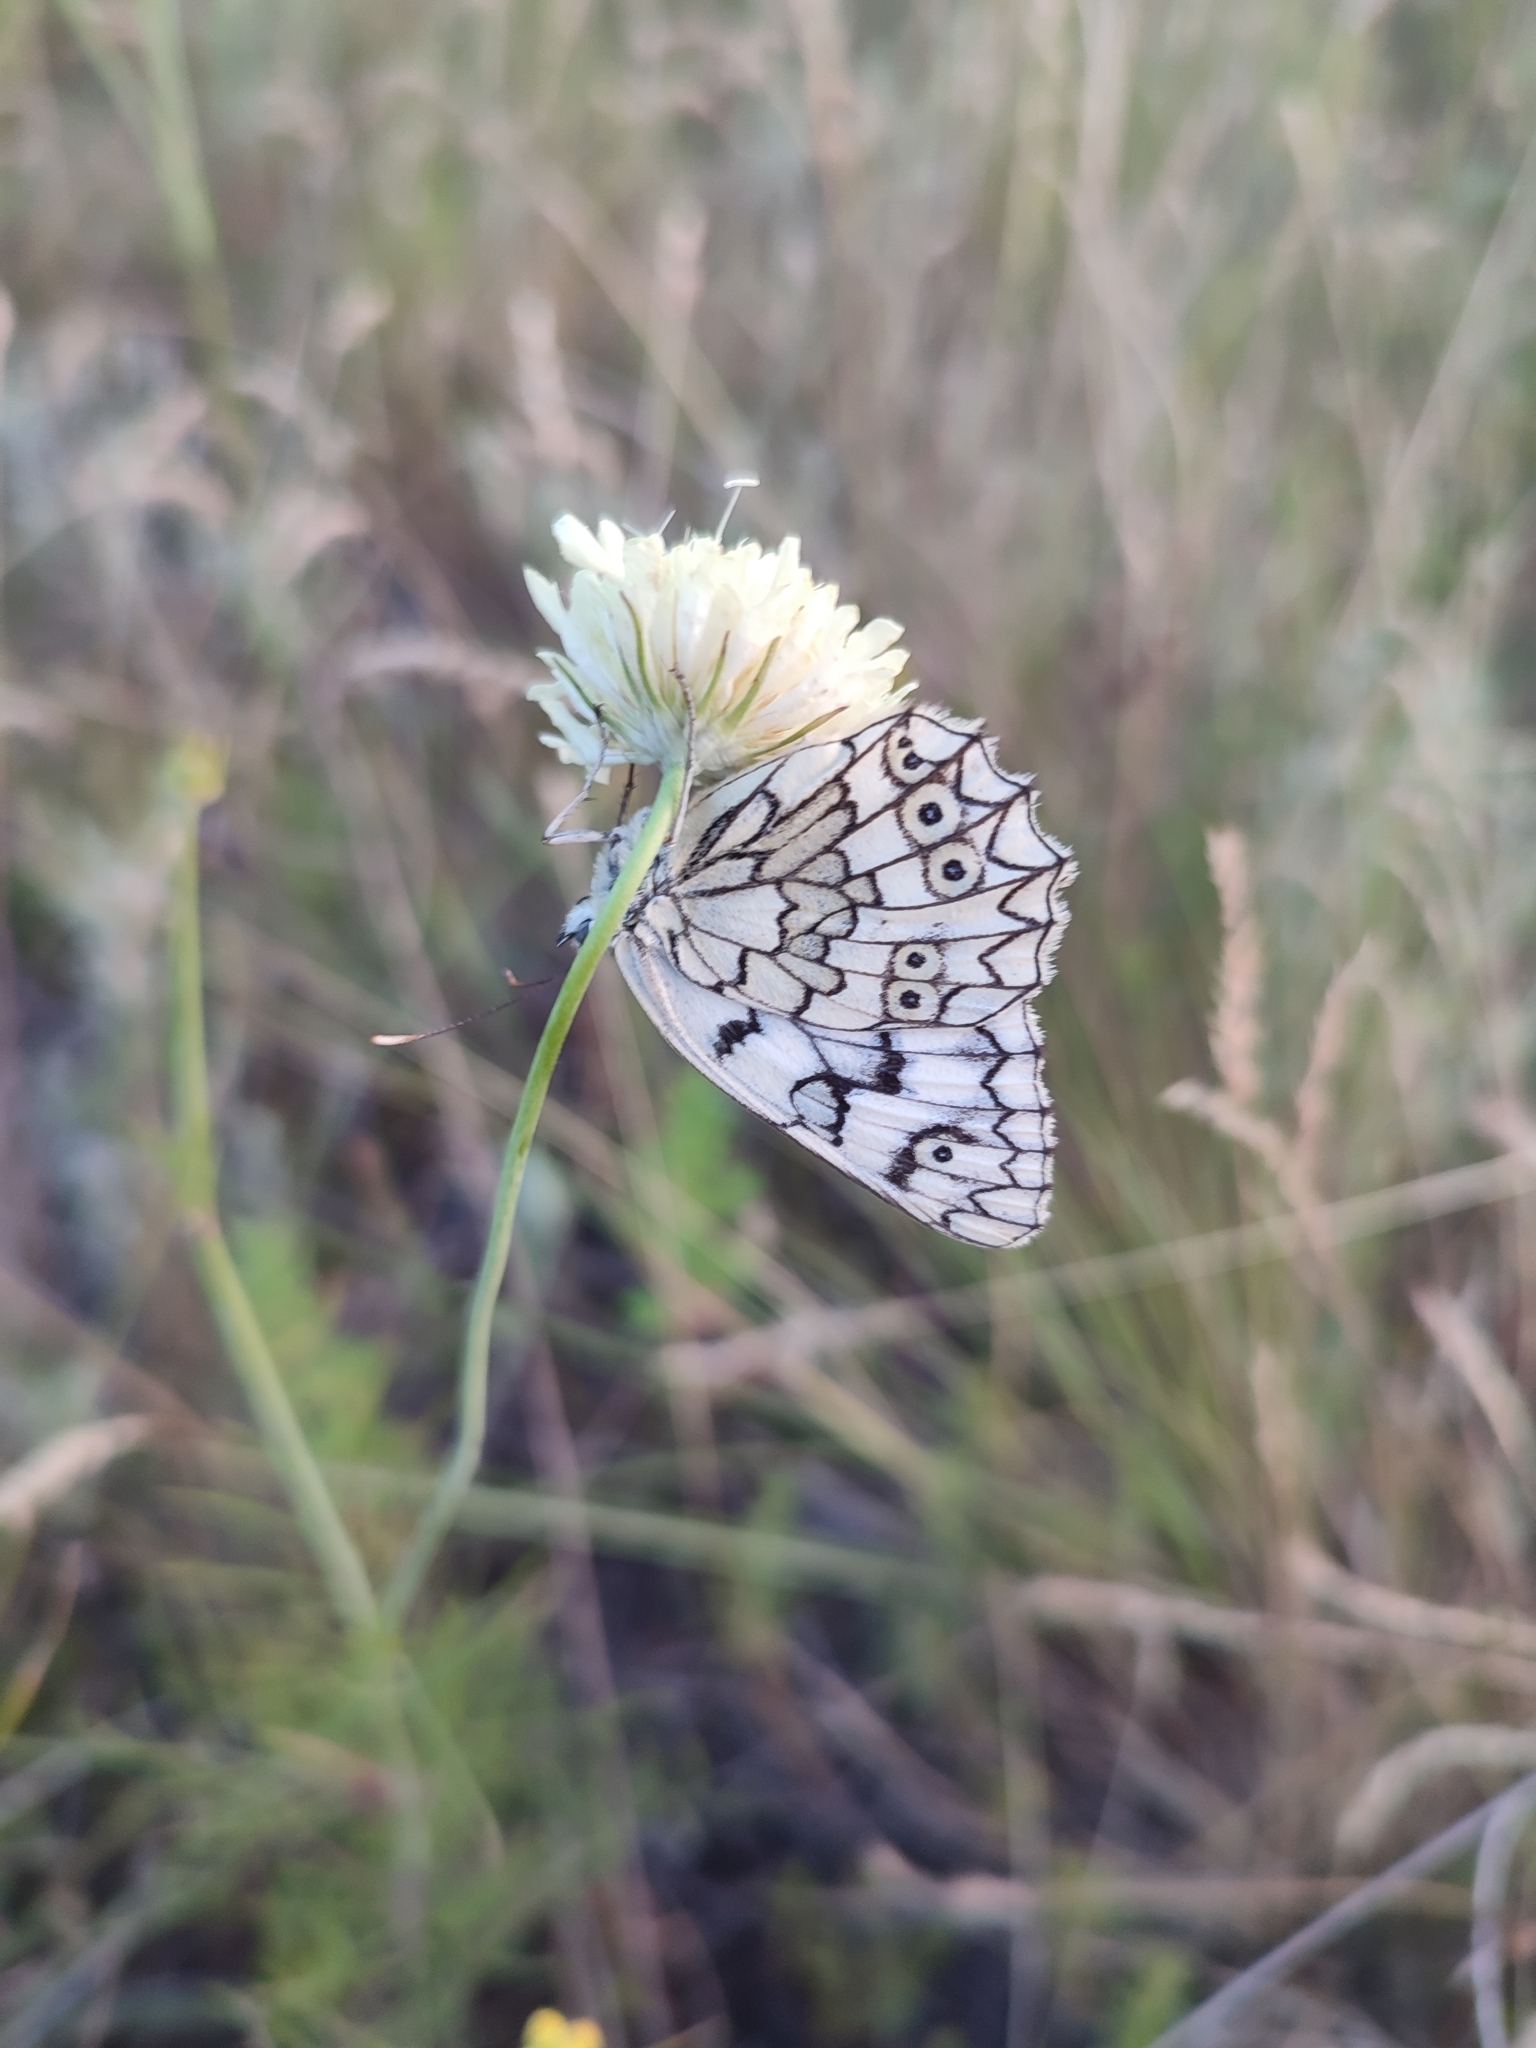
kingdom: Animalia
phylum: Arthropoda
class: Insecta
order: Lepidoptera
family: Nymphalidae
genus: Melanargia
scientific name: Melanargia japygia
